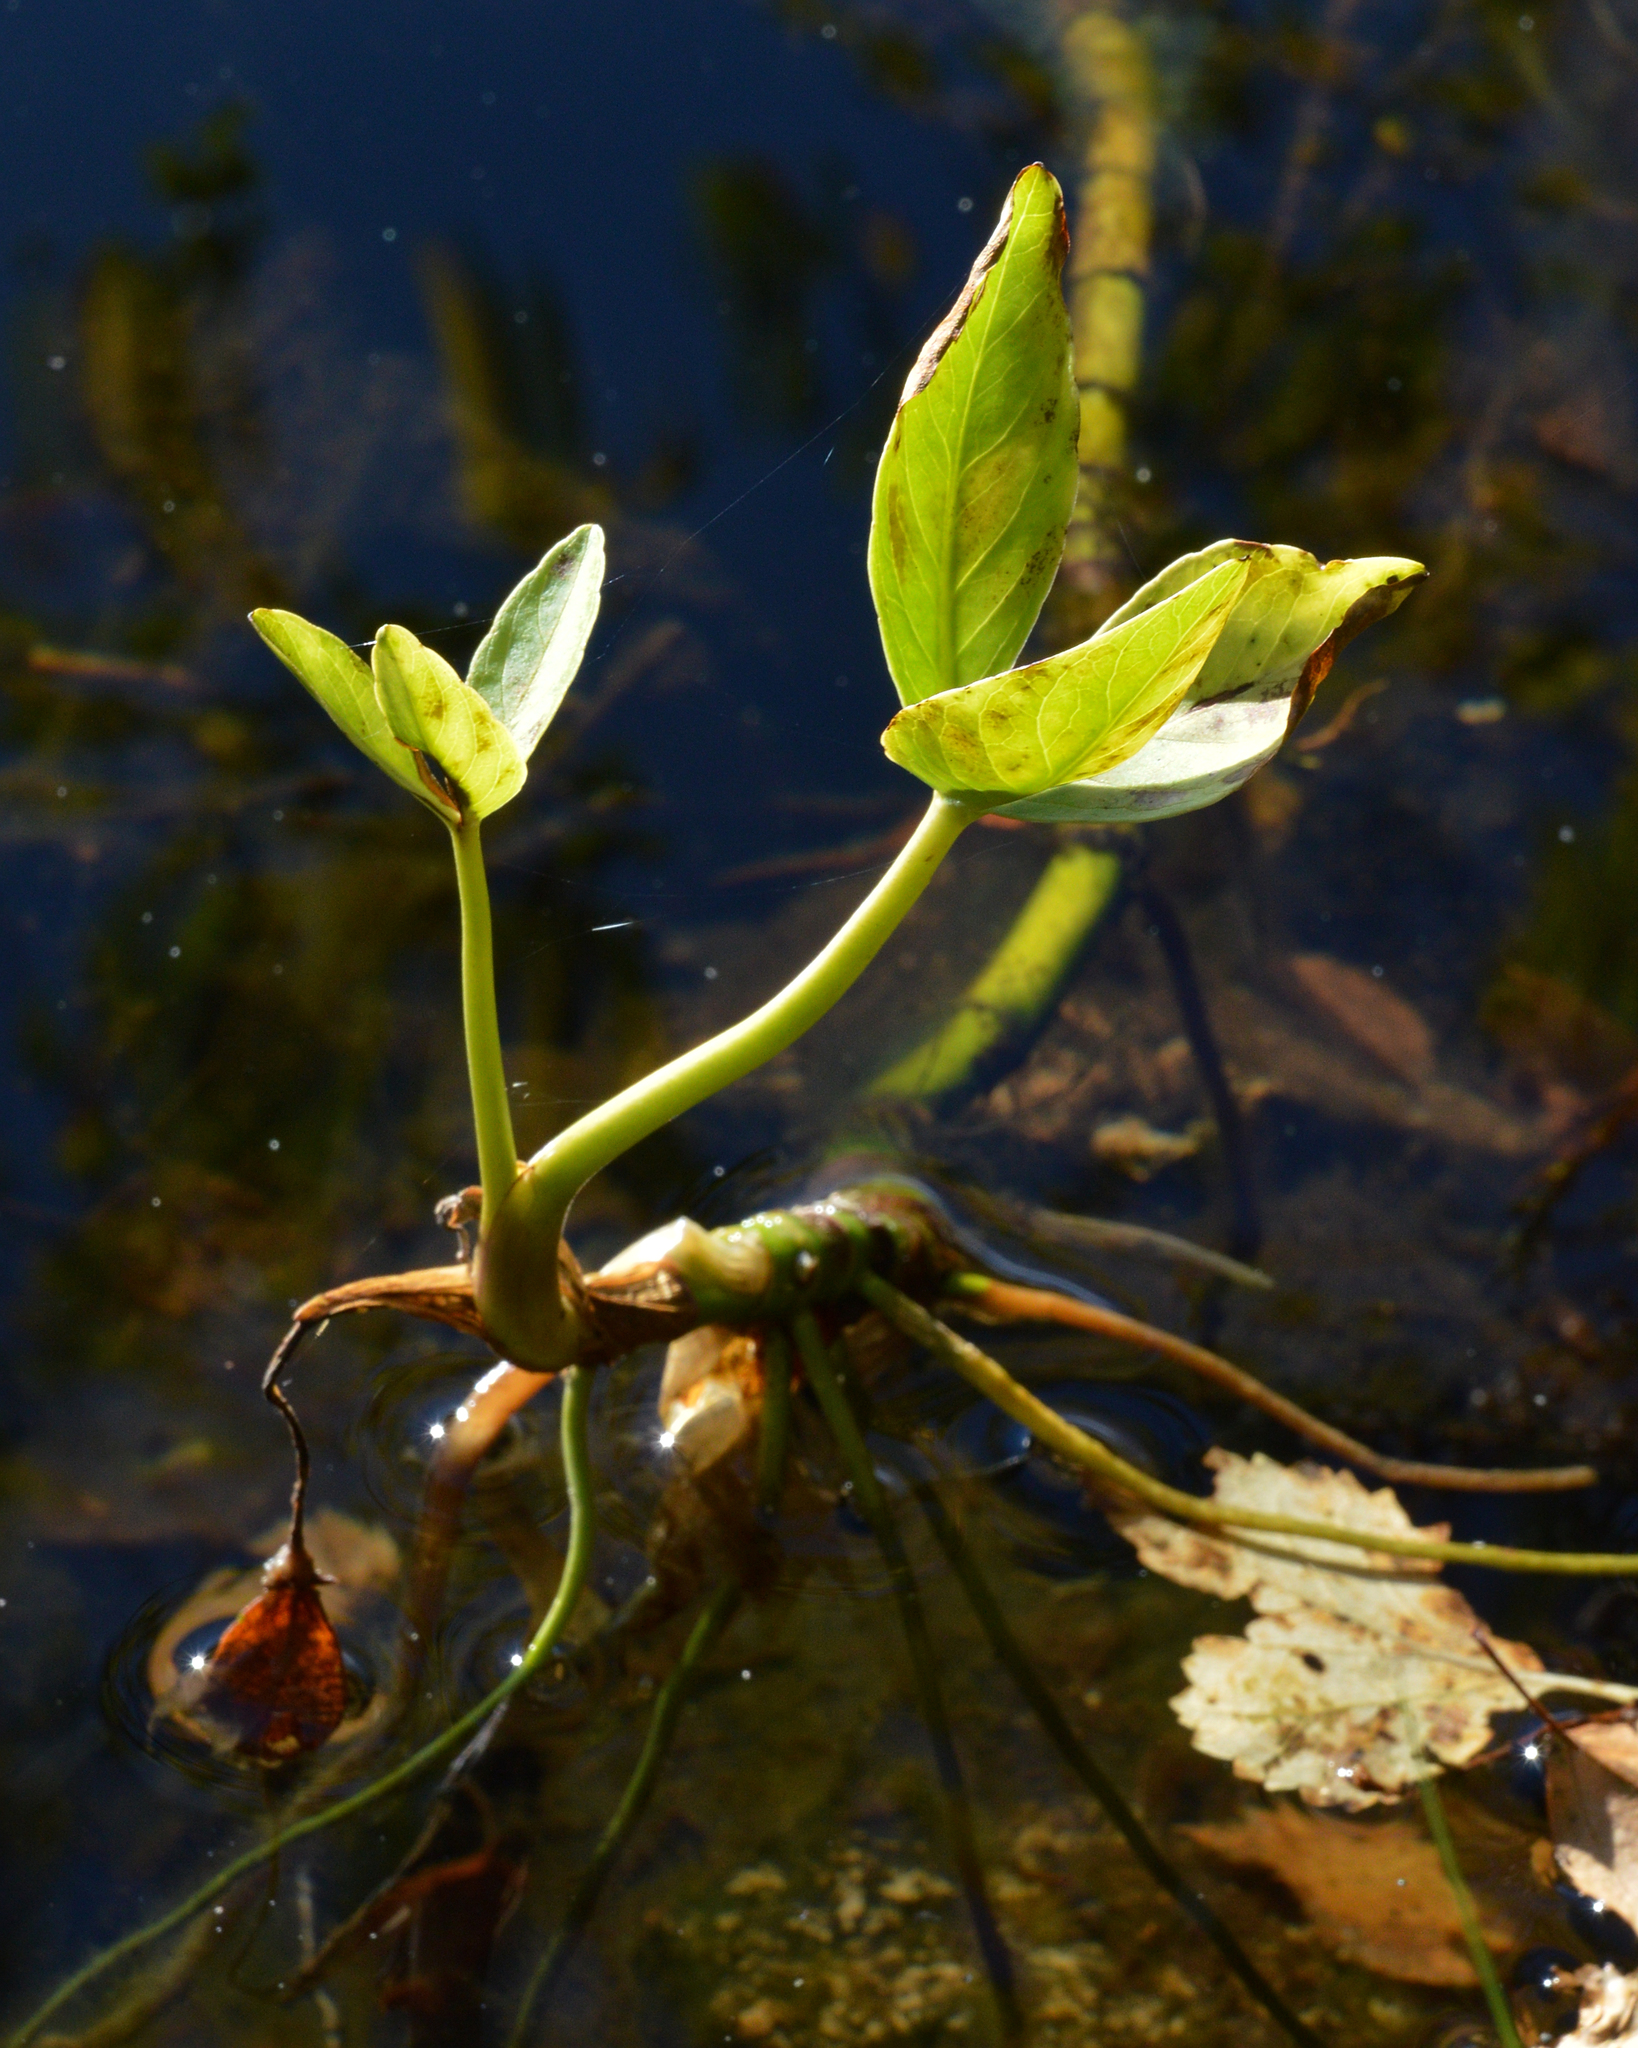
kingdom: Plantae
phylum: Tracheophyta
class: Magnoliopsida
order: Asterales
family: Menyanthaceae
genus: Menyanthes
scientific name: Menyanthes trifoliata
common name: Bogbean
